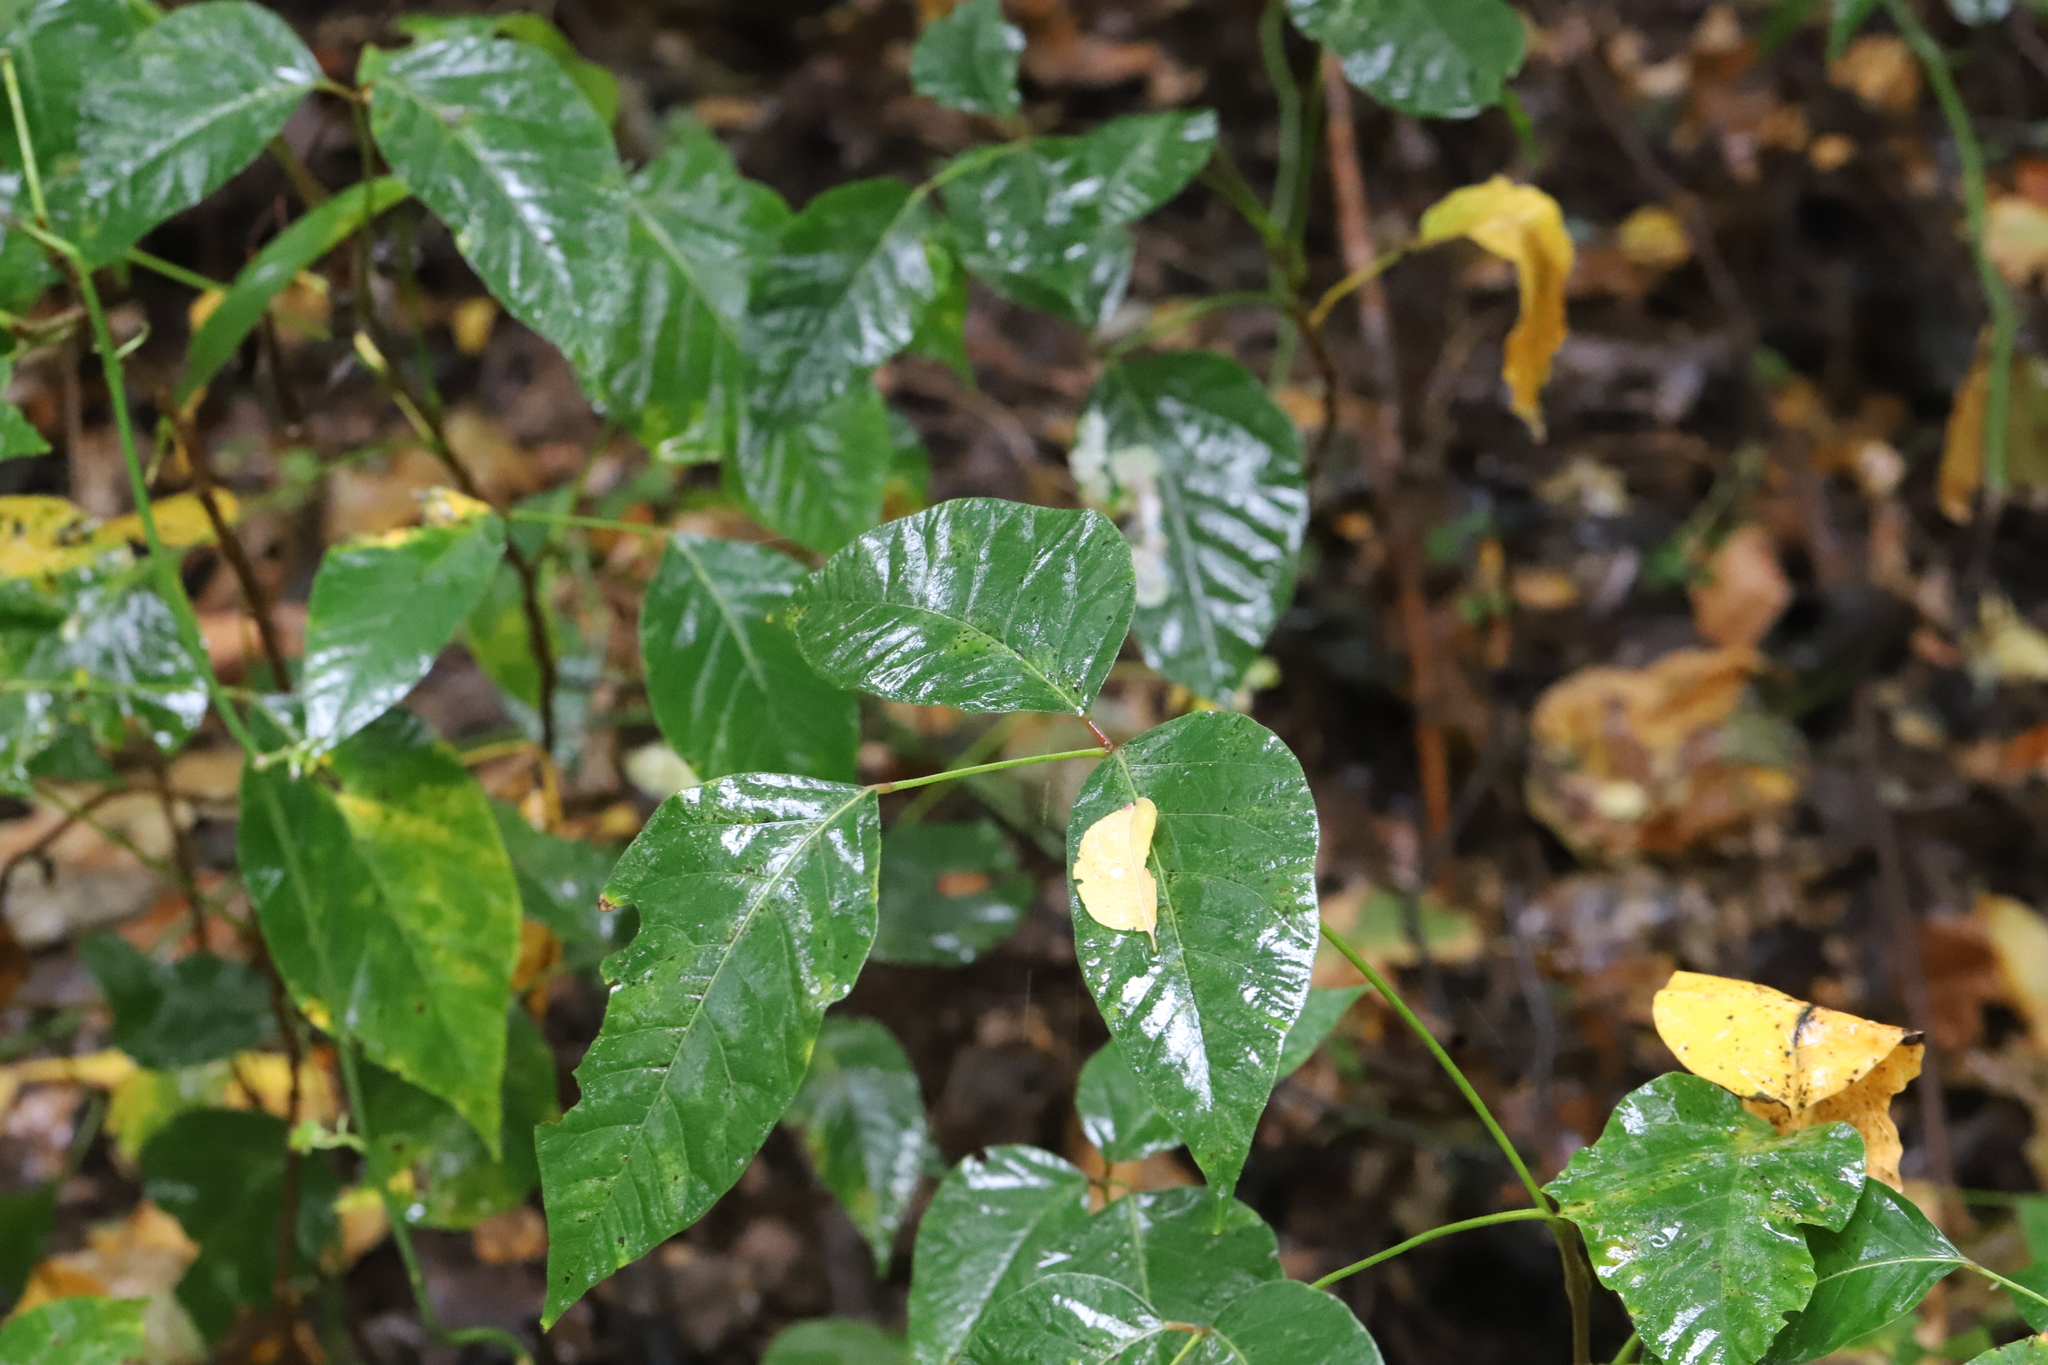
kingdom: Plantae
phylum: Tracheophyta
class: Magnoliopsida
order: Sapindales
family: Anacardiaceae
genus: Toxicodendron
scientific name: Toxicodendron radicans
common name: Poison ivy
